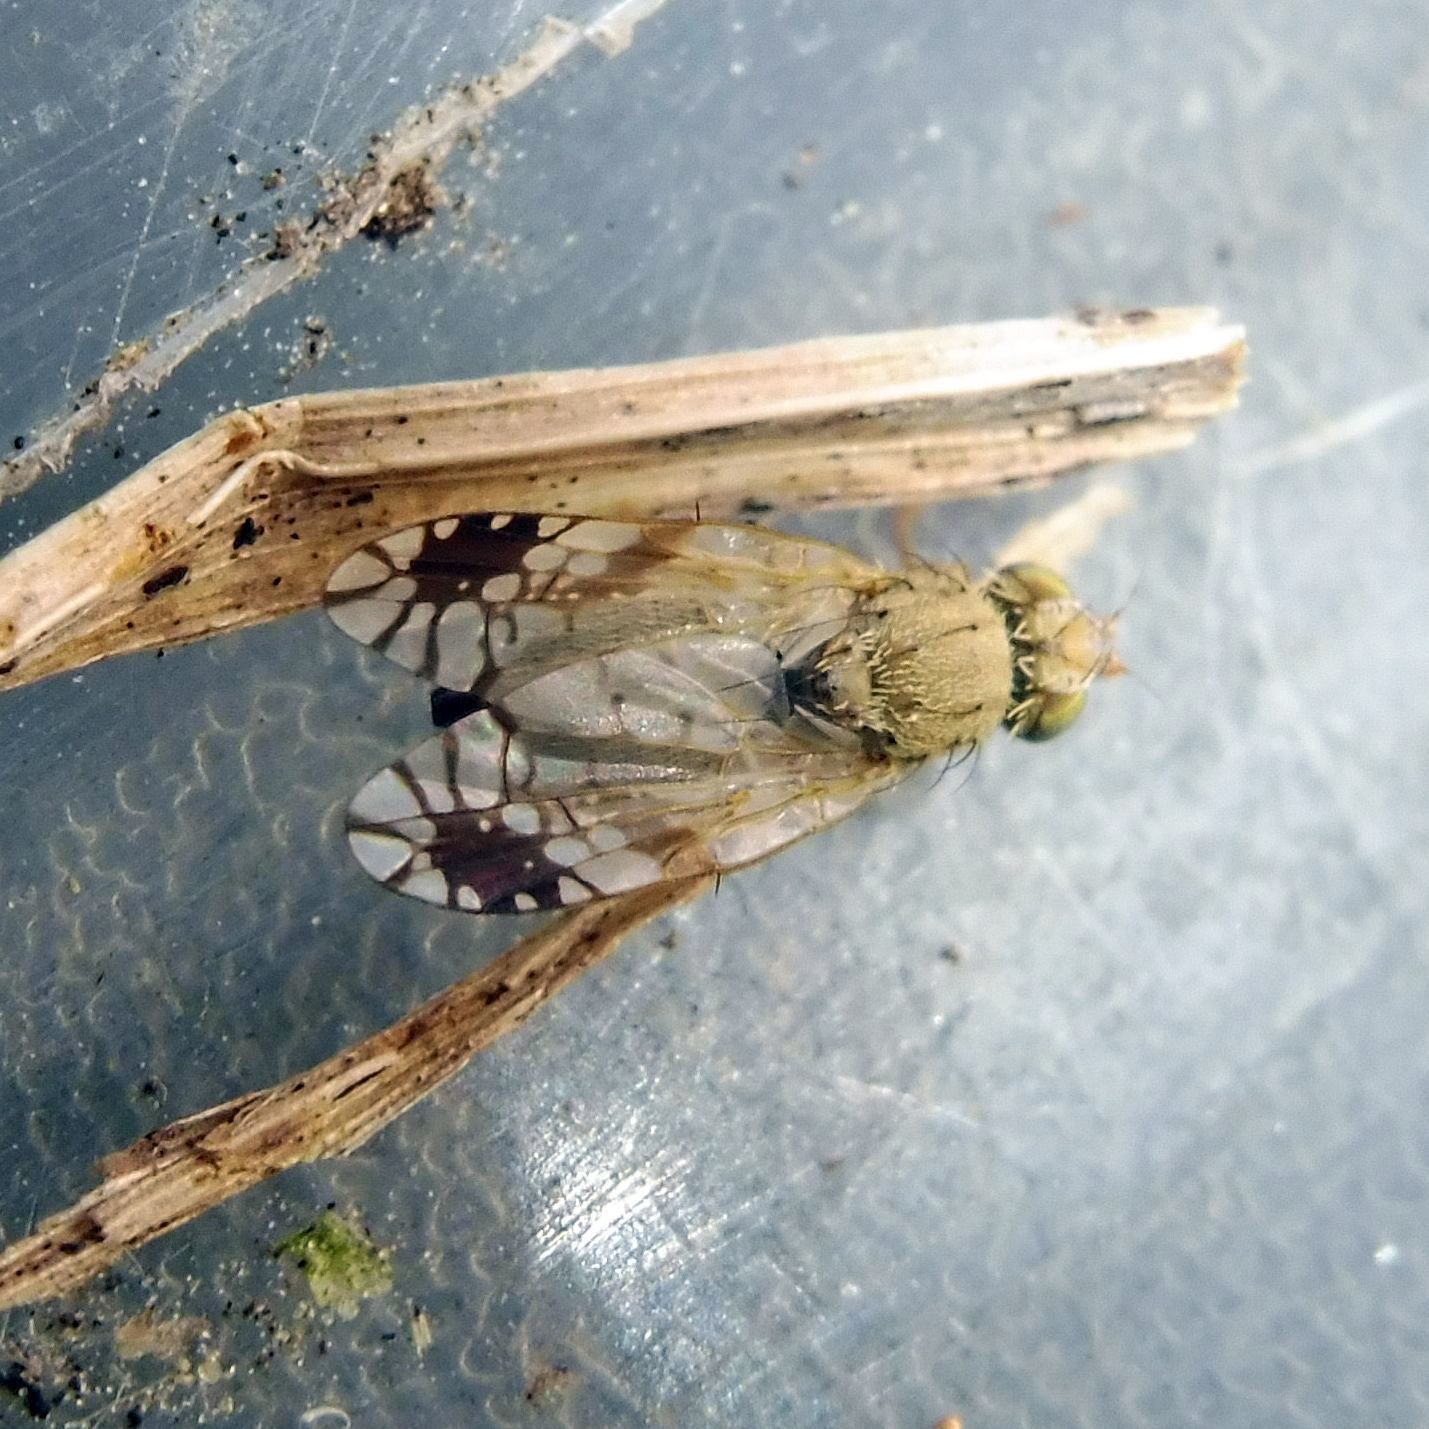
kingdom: Animalia
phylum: Arthropoda
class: Insecta
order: Diptera
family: Tephritidae
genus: Tephritis
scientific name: Tephritis cometa
